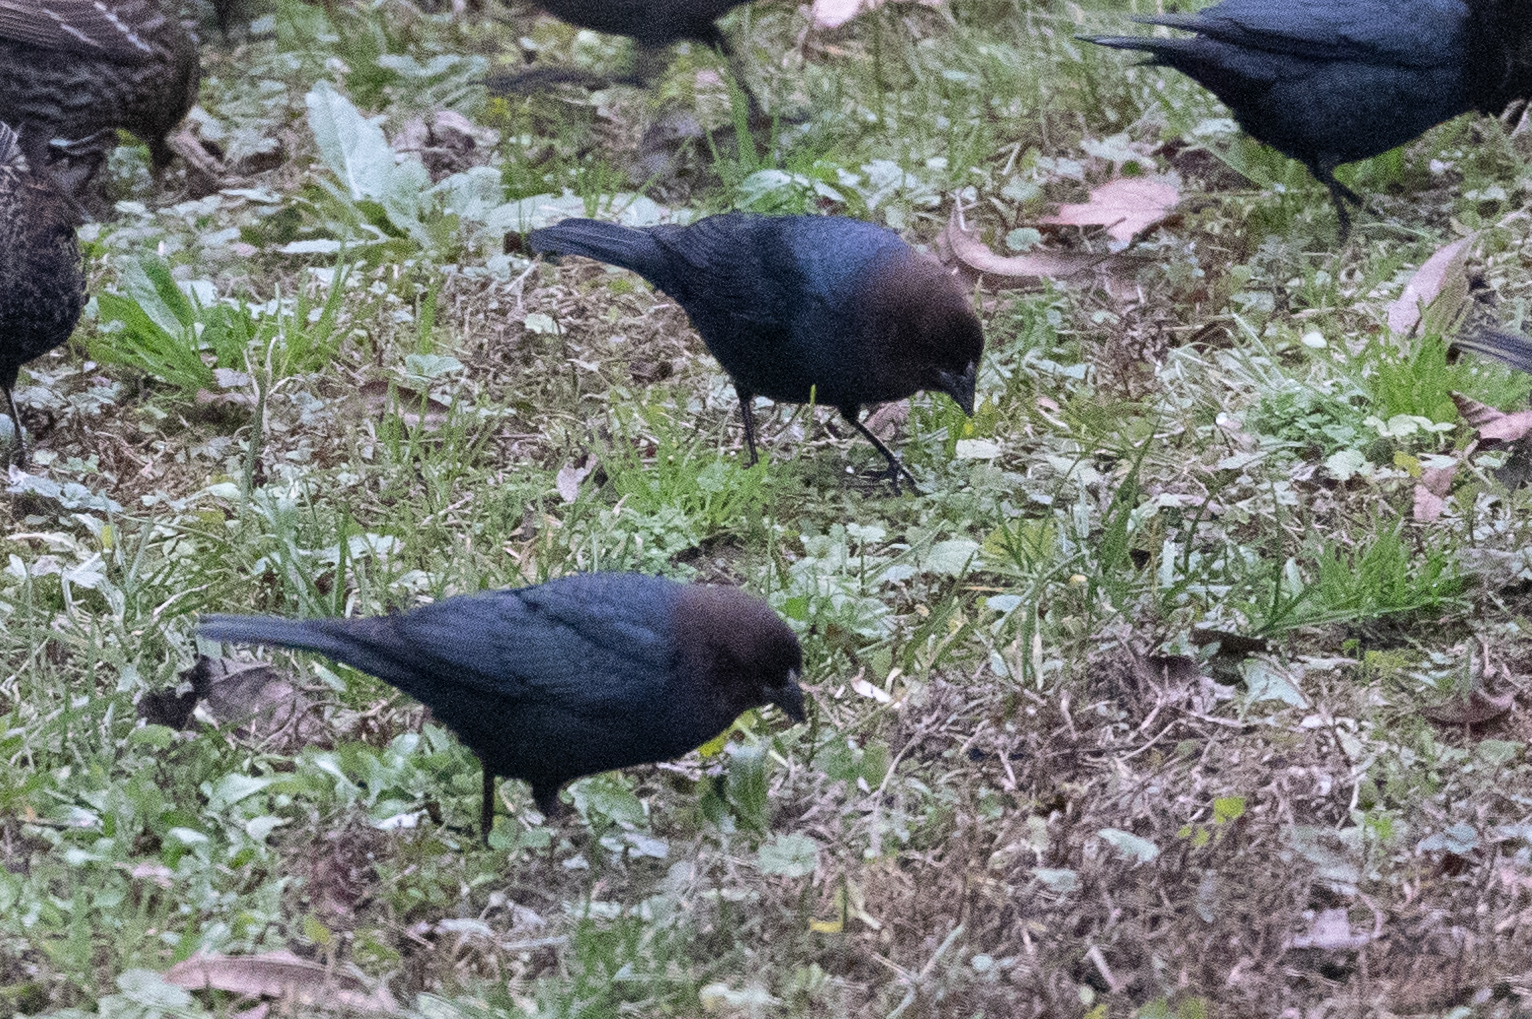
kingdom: Animalia
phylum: Chordata
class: Aves
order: Passeriformes
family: Icteridae
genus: Molothrus
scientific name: Molothrus ater
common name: Brown-headed cowbird
